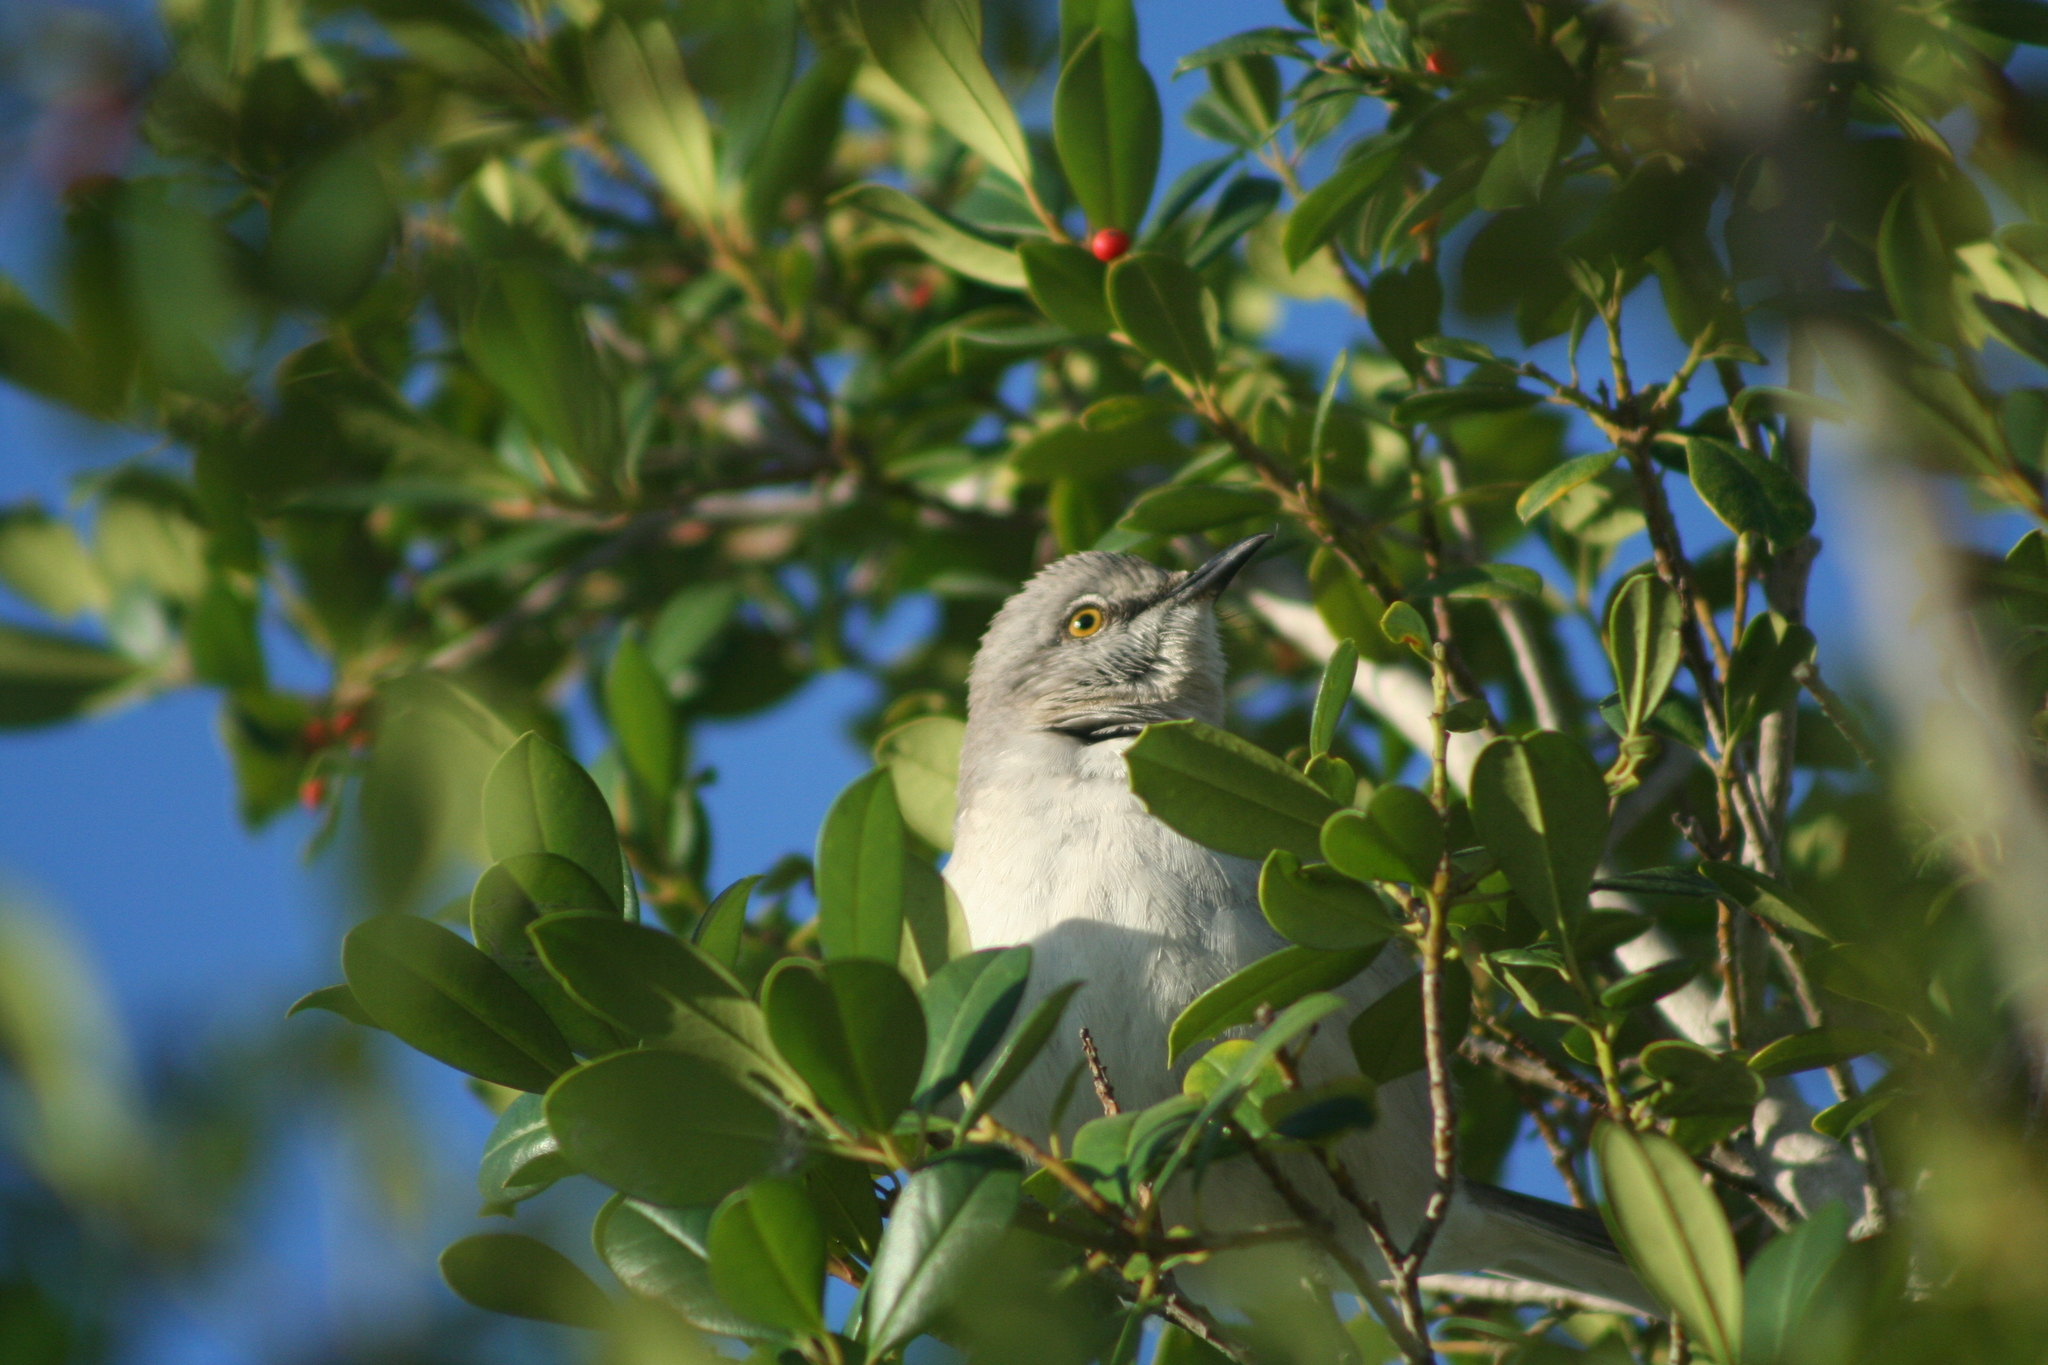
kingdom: Animalia
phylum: Chordata
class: Aves
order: Passeriformes
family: Mimidae
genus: Mimus
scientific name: Mimus polyglottos
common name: Northern mockingbird
